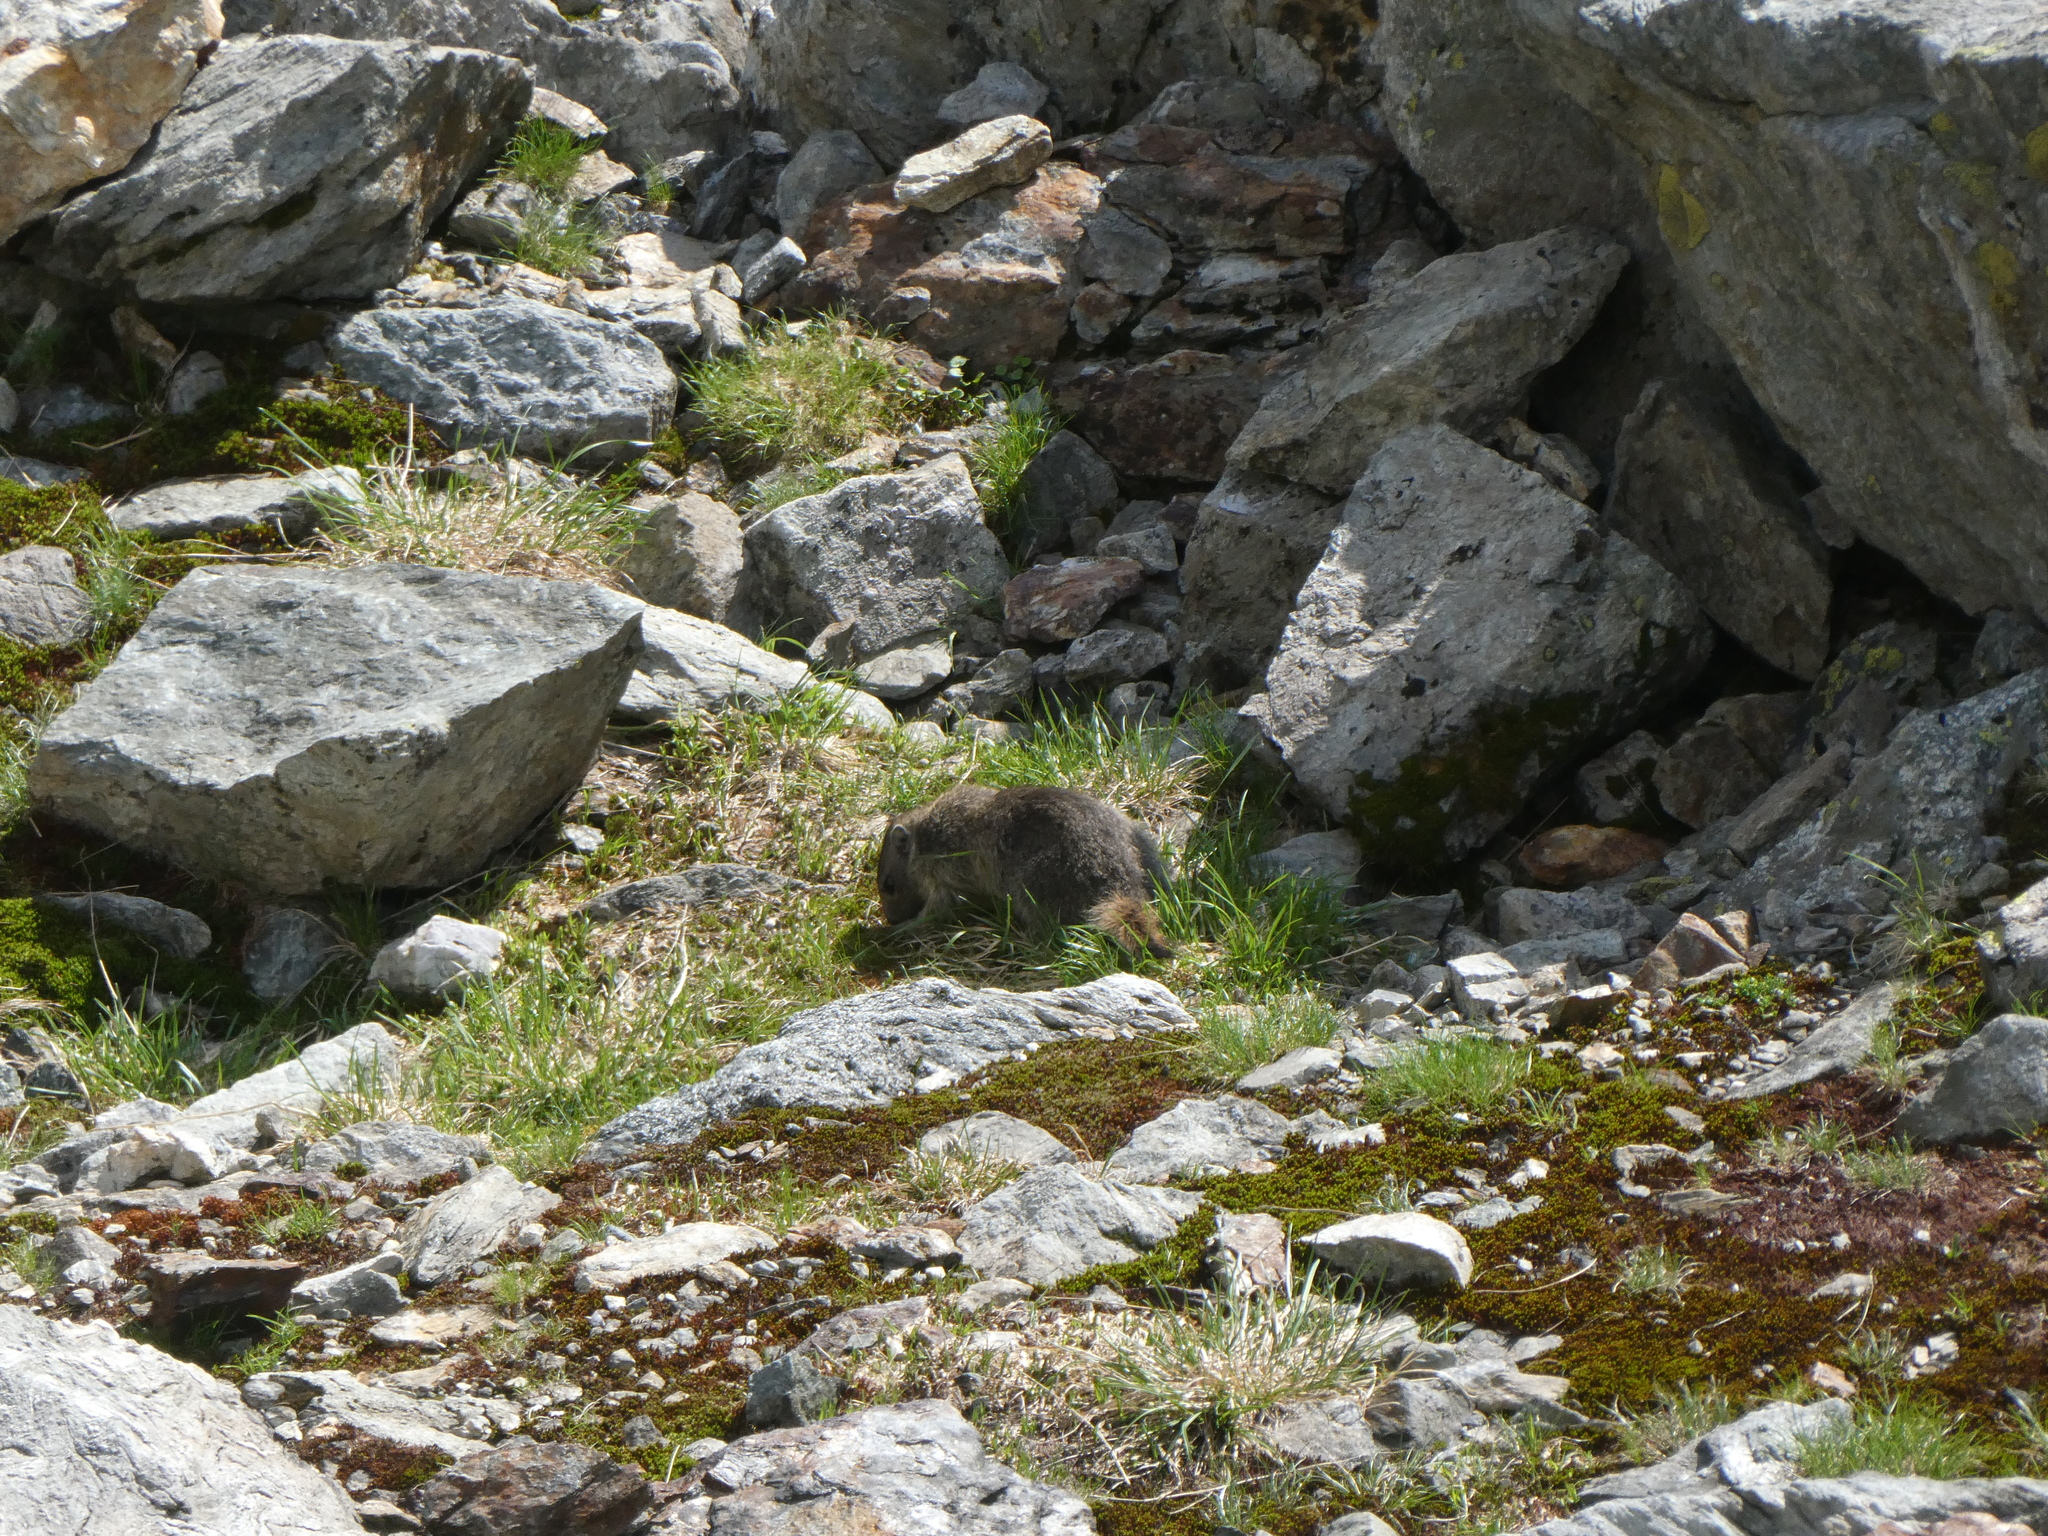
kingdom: Animalia
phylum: Chordata
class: Mammalia
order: Rodentia
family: Sciuridae
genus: Marmota
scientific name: Marmota marmota
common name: Alpine marmot
